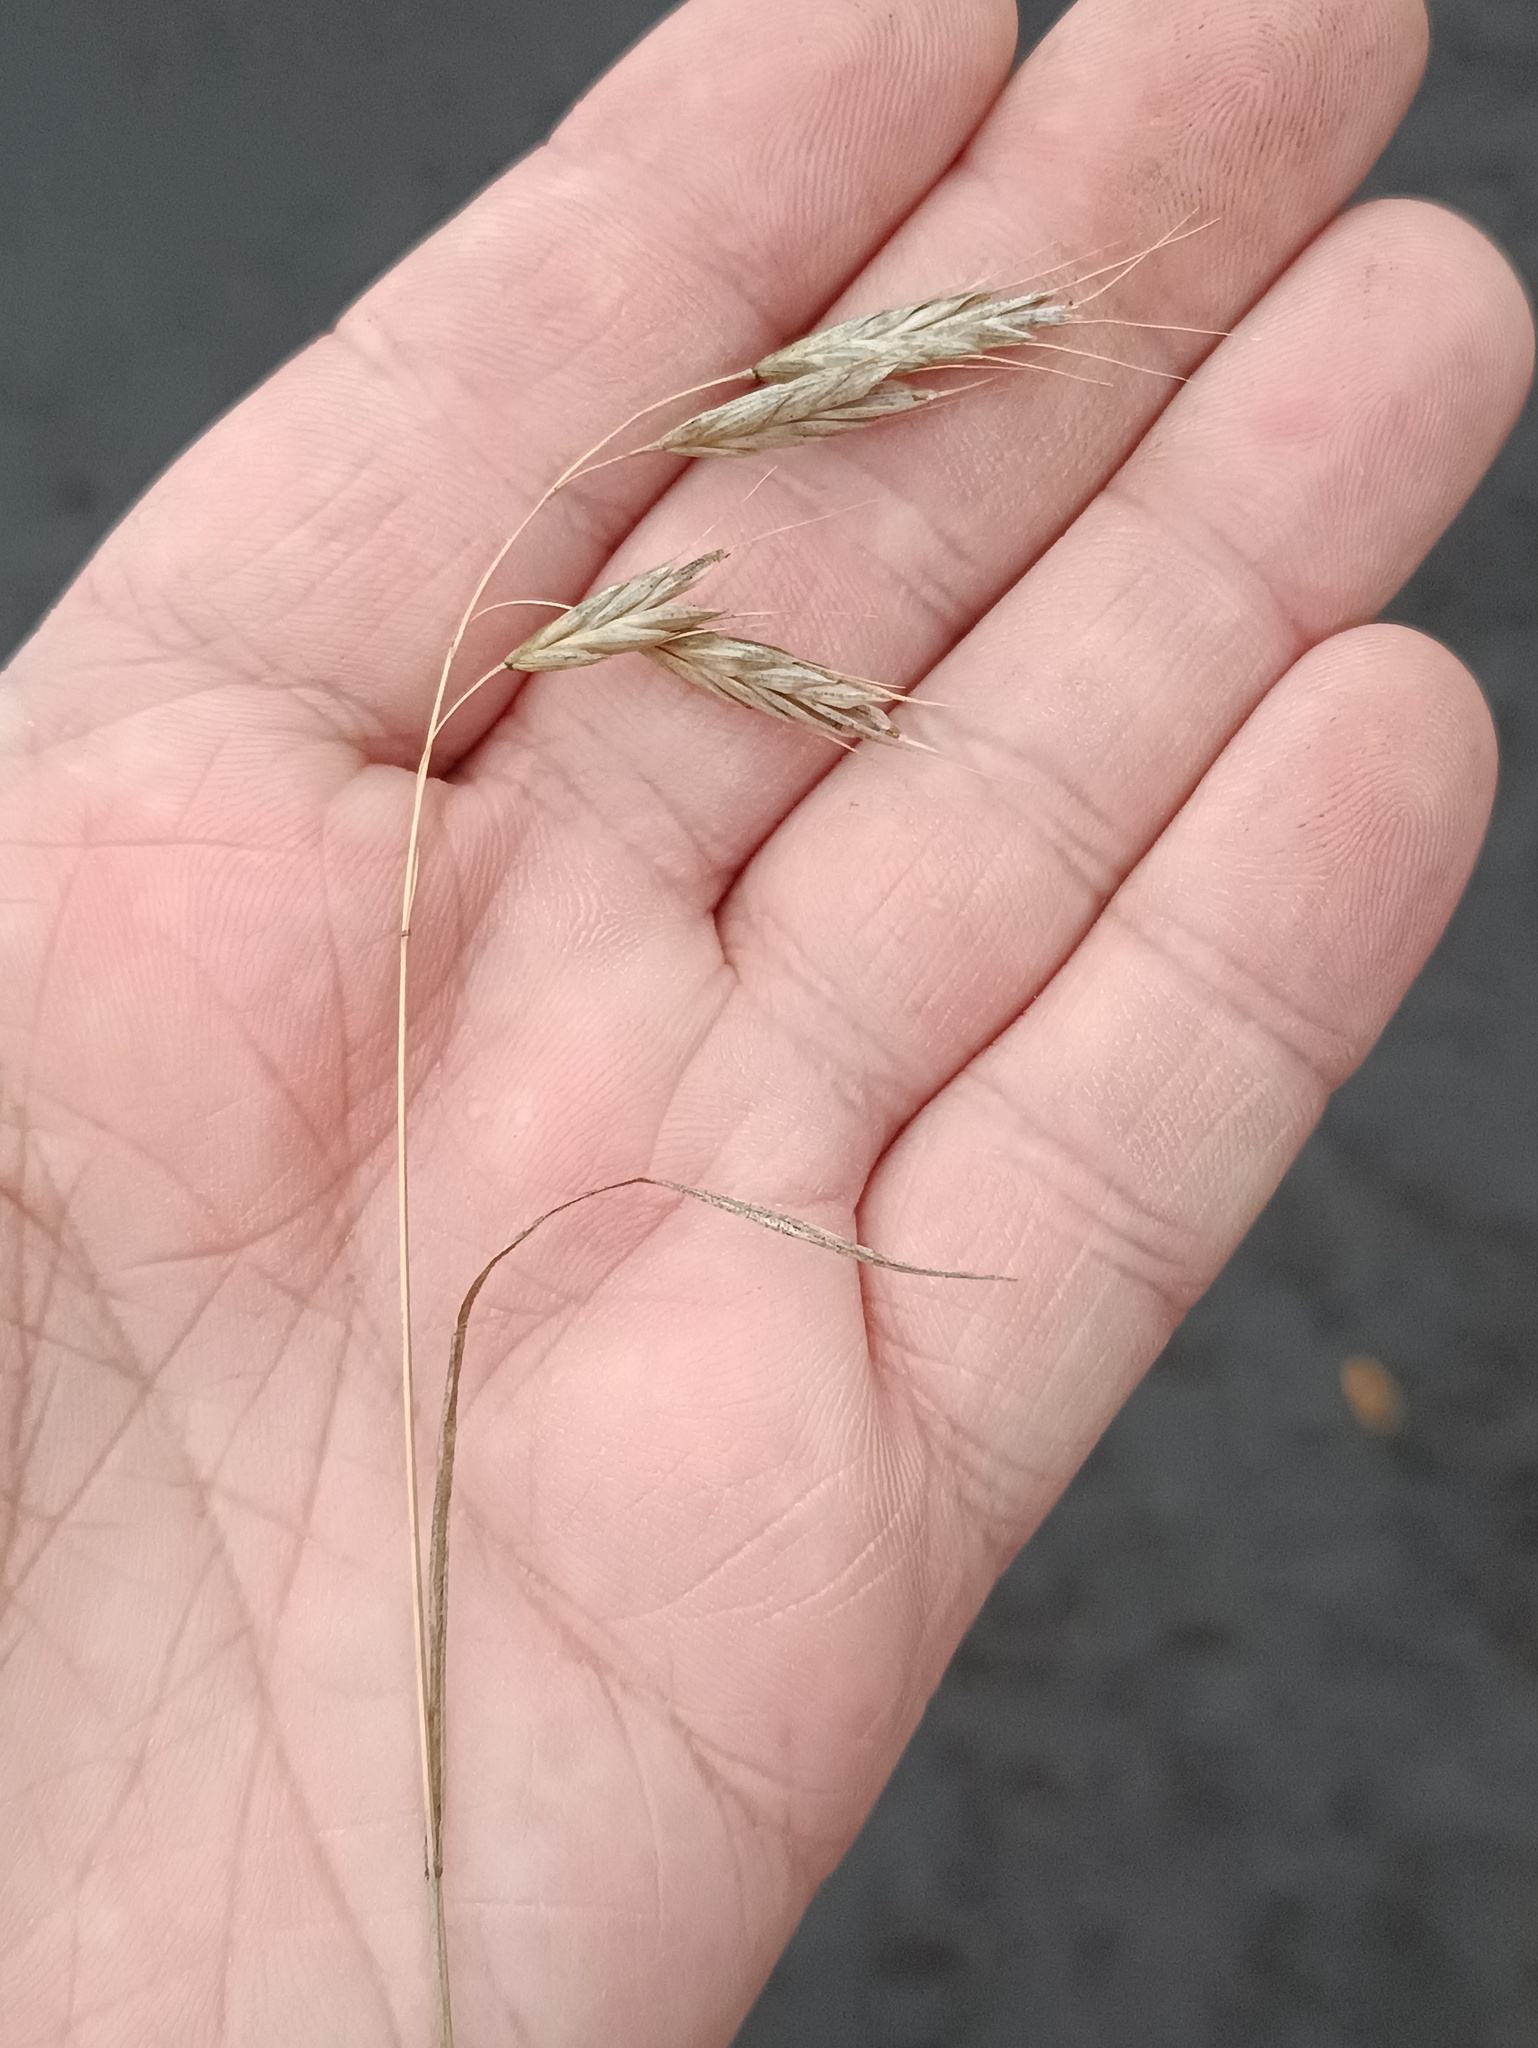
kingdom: Plantae
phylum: Tracheophyta
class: Liliopsida
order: Poales
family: Poaceae
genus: Bromus
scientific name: Bromus japonicus
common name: Japanese brome
